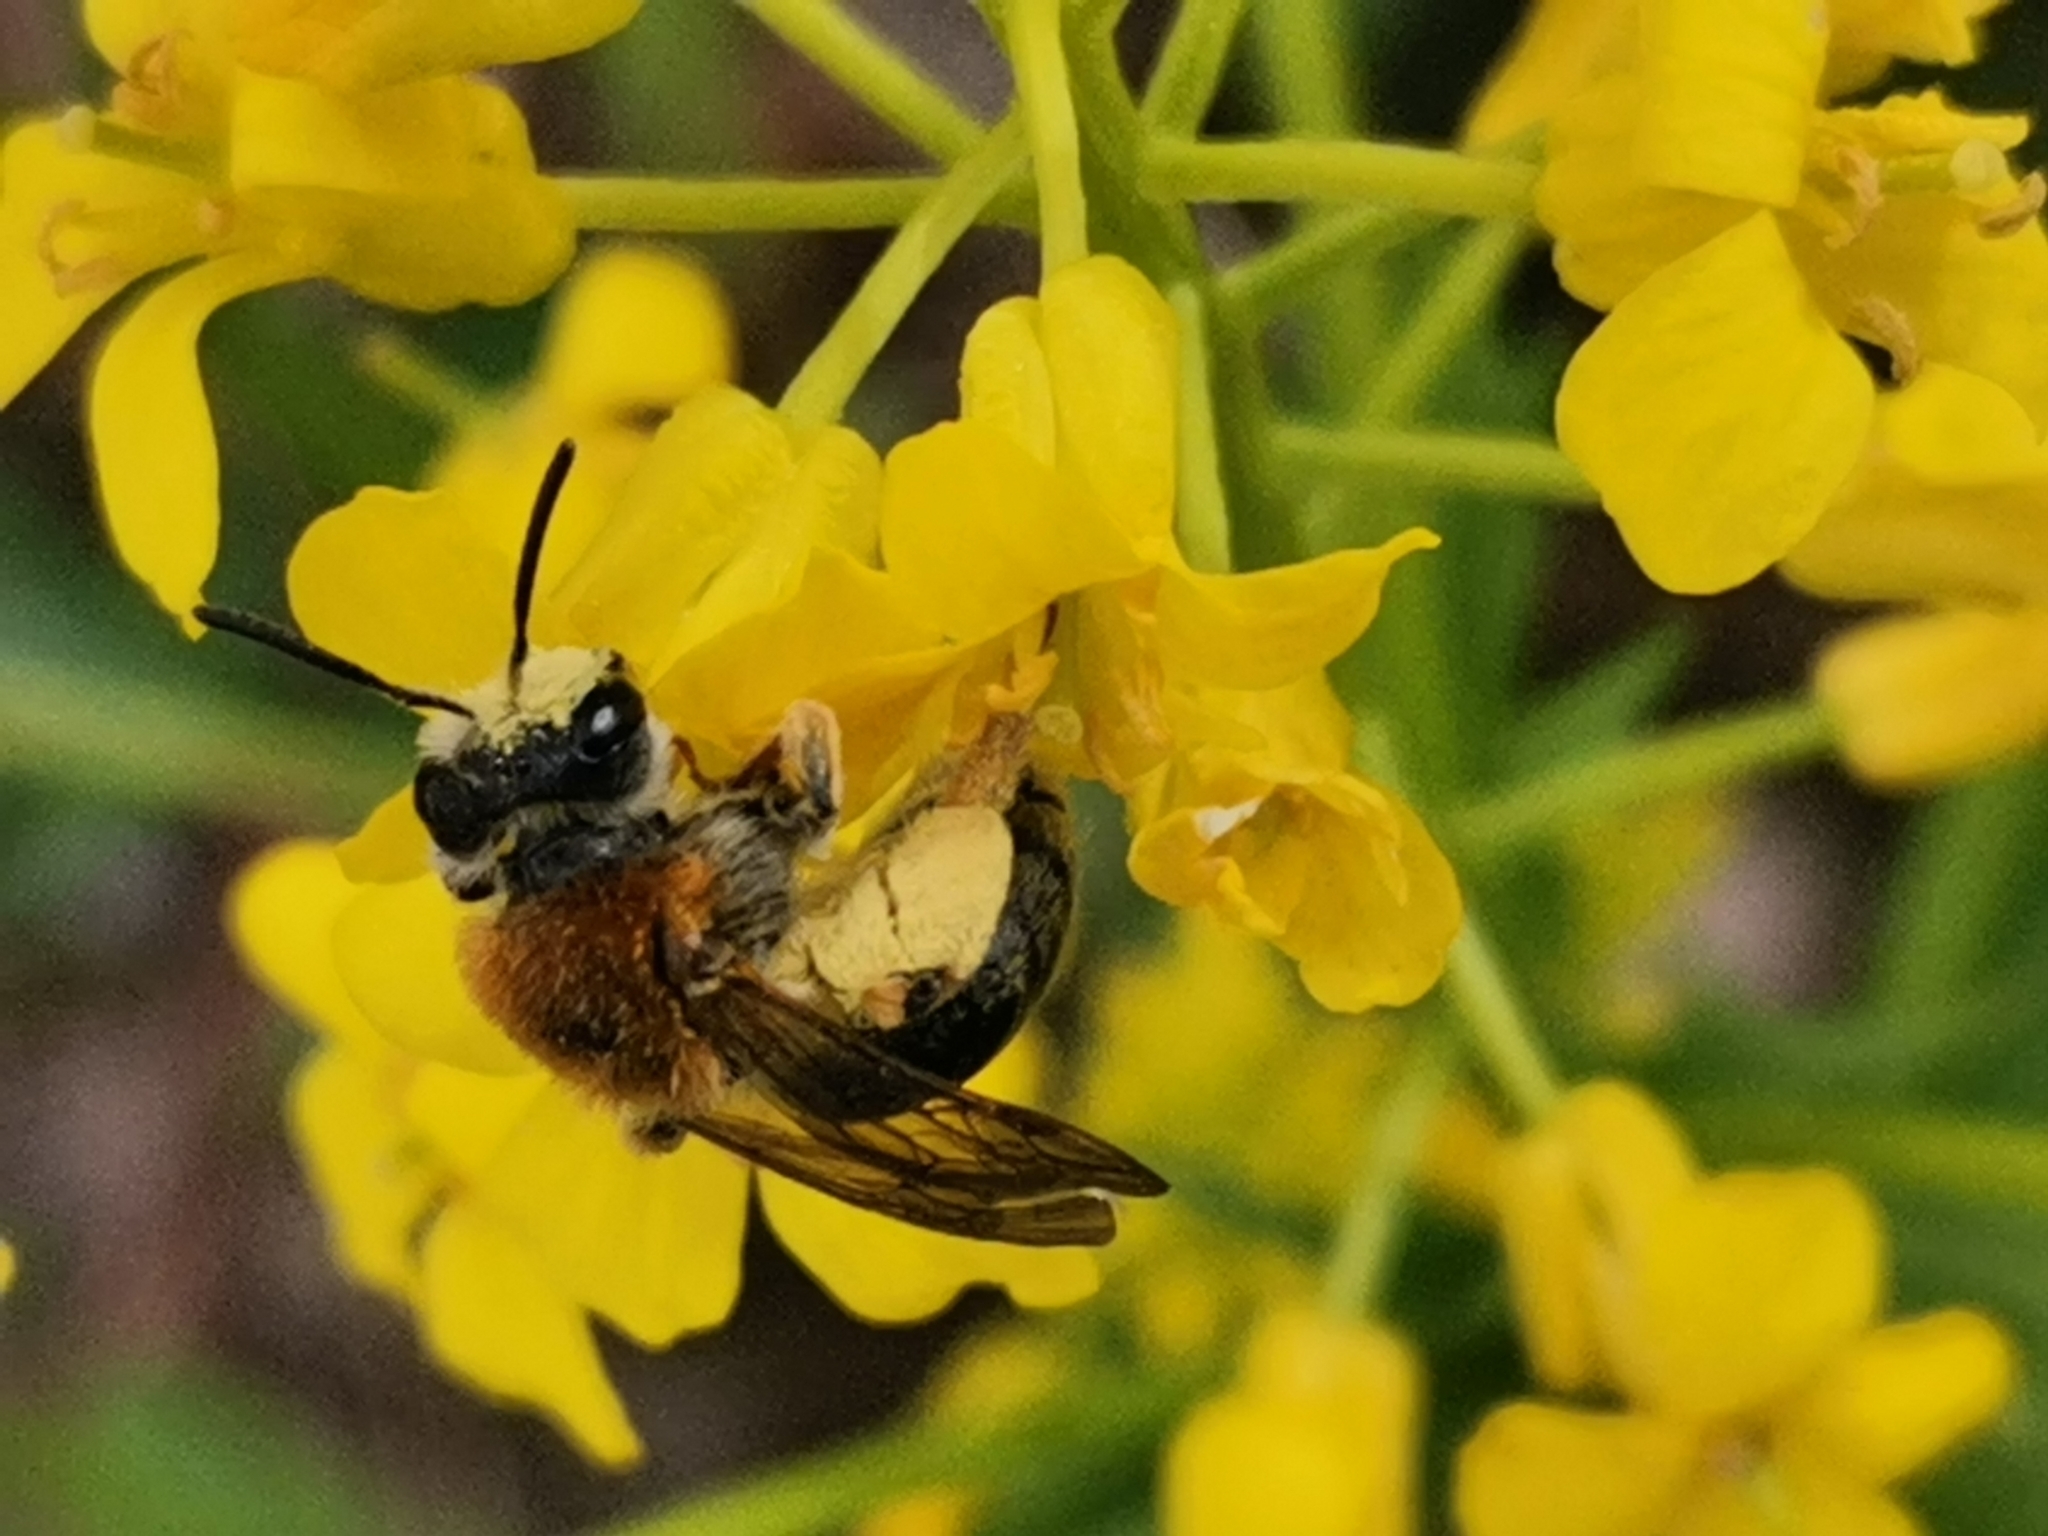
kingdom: Animalia
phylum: Arthropoda
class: Insecta
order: Hymenoptera
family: Andrenidae
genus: Andrena
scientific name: Andrena haemorrhoa
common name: Early mining bee
